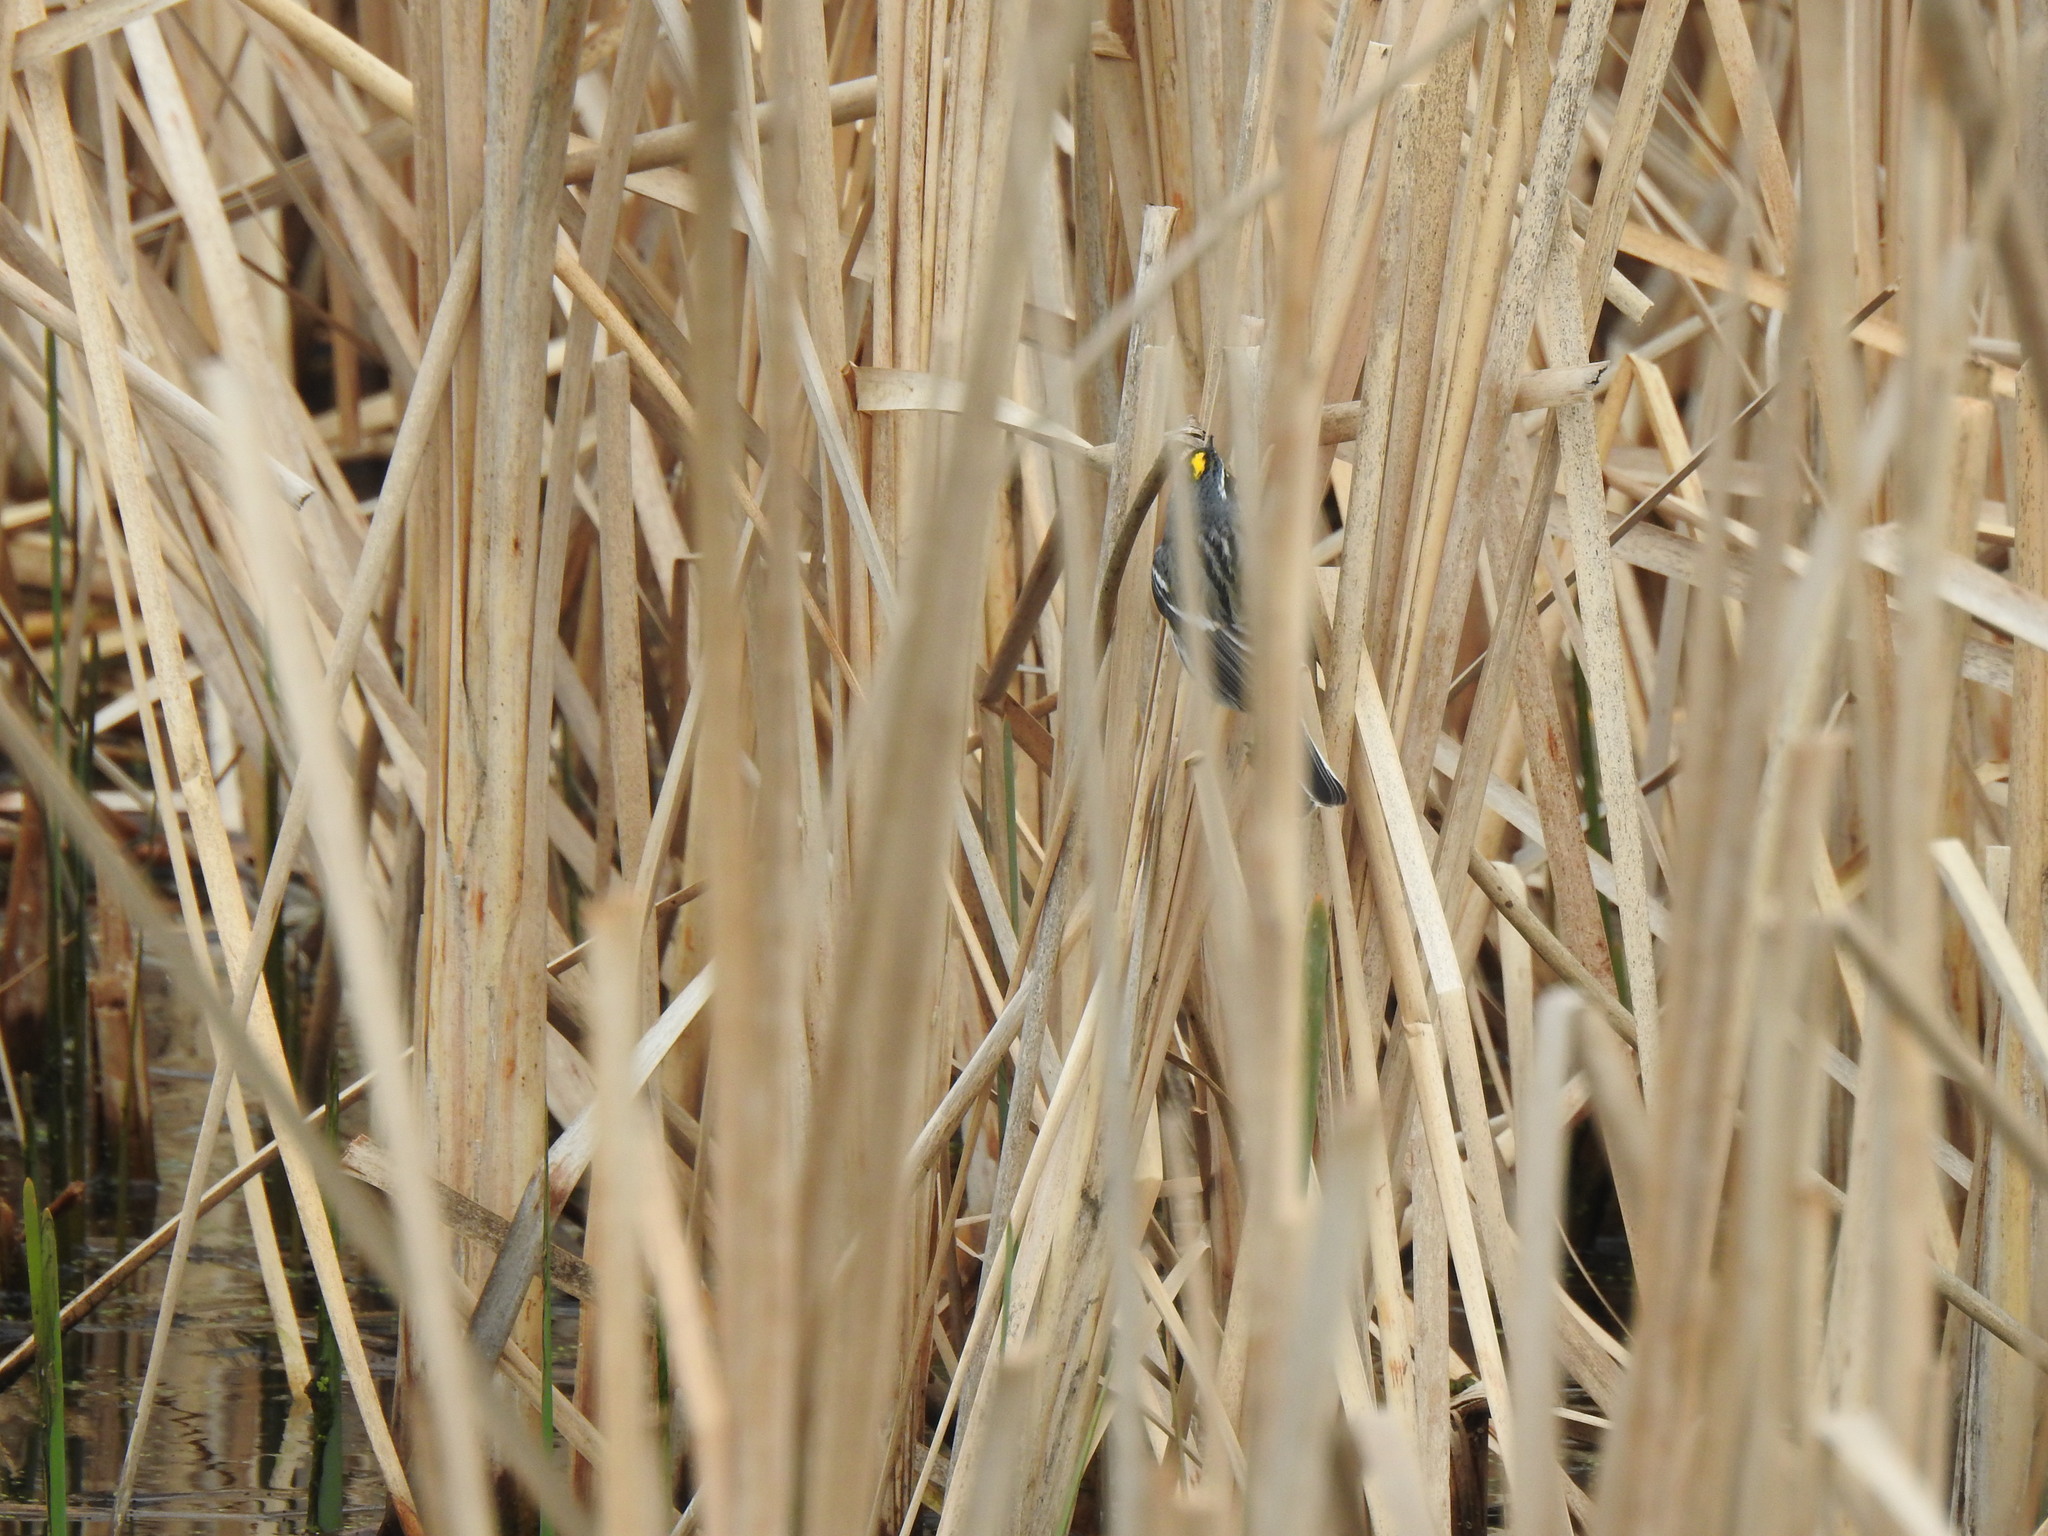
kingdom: Animalia
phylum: Chordata
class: Aves
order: Passeriformes
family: Parulidae
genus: Setophaga
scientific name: Setophaga coronata
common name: Myrtle warbler
